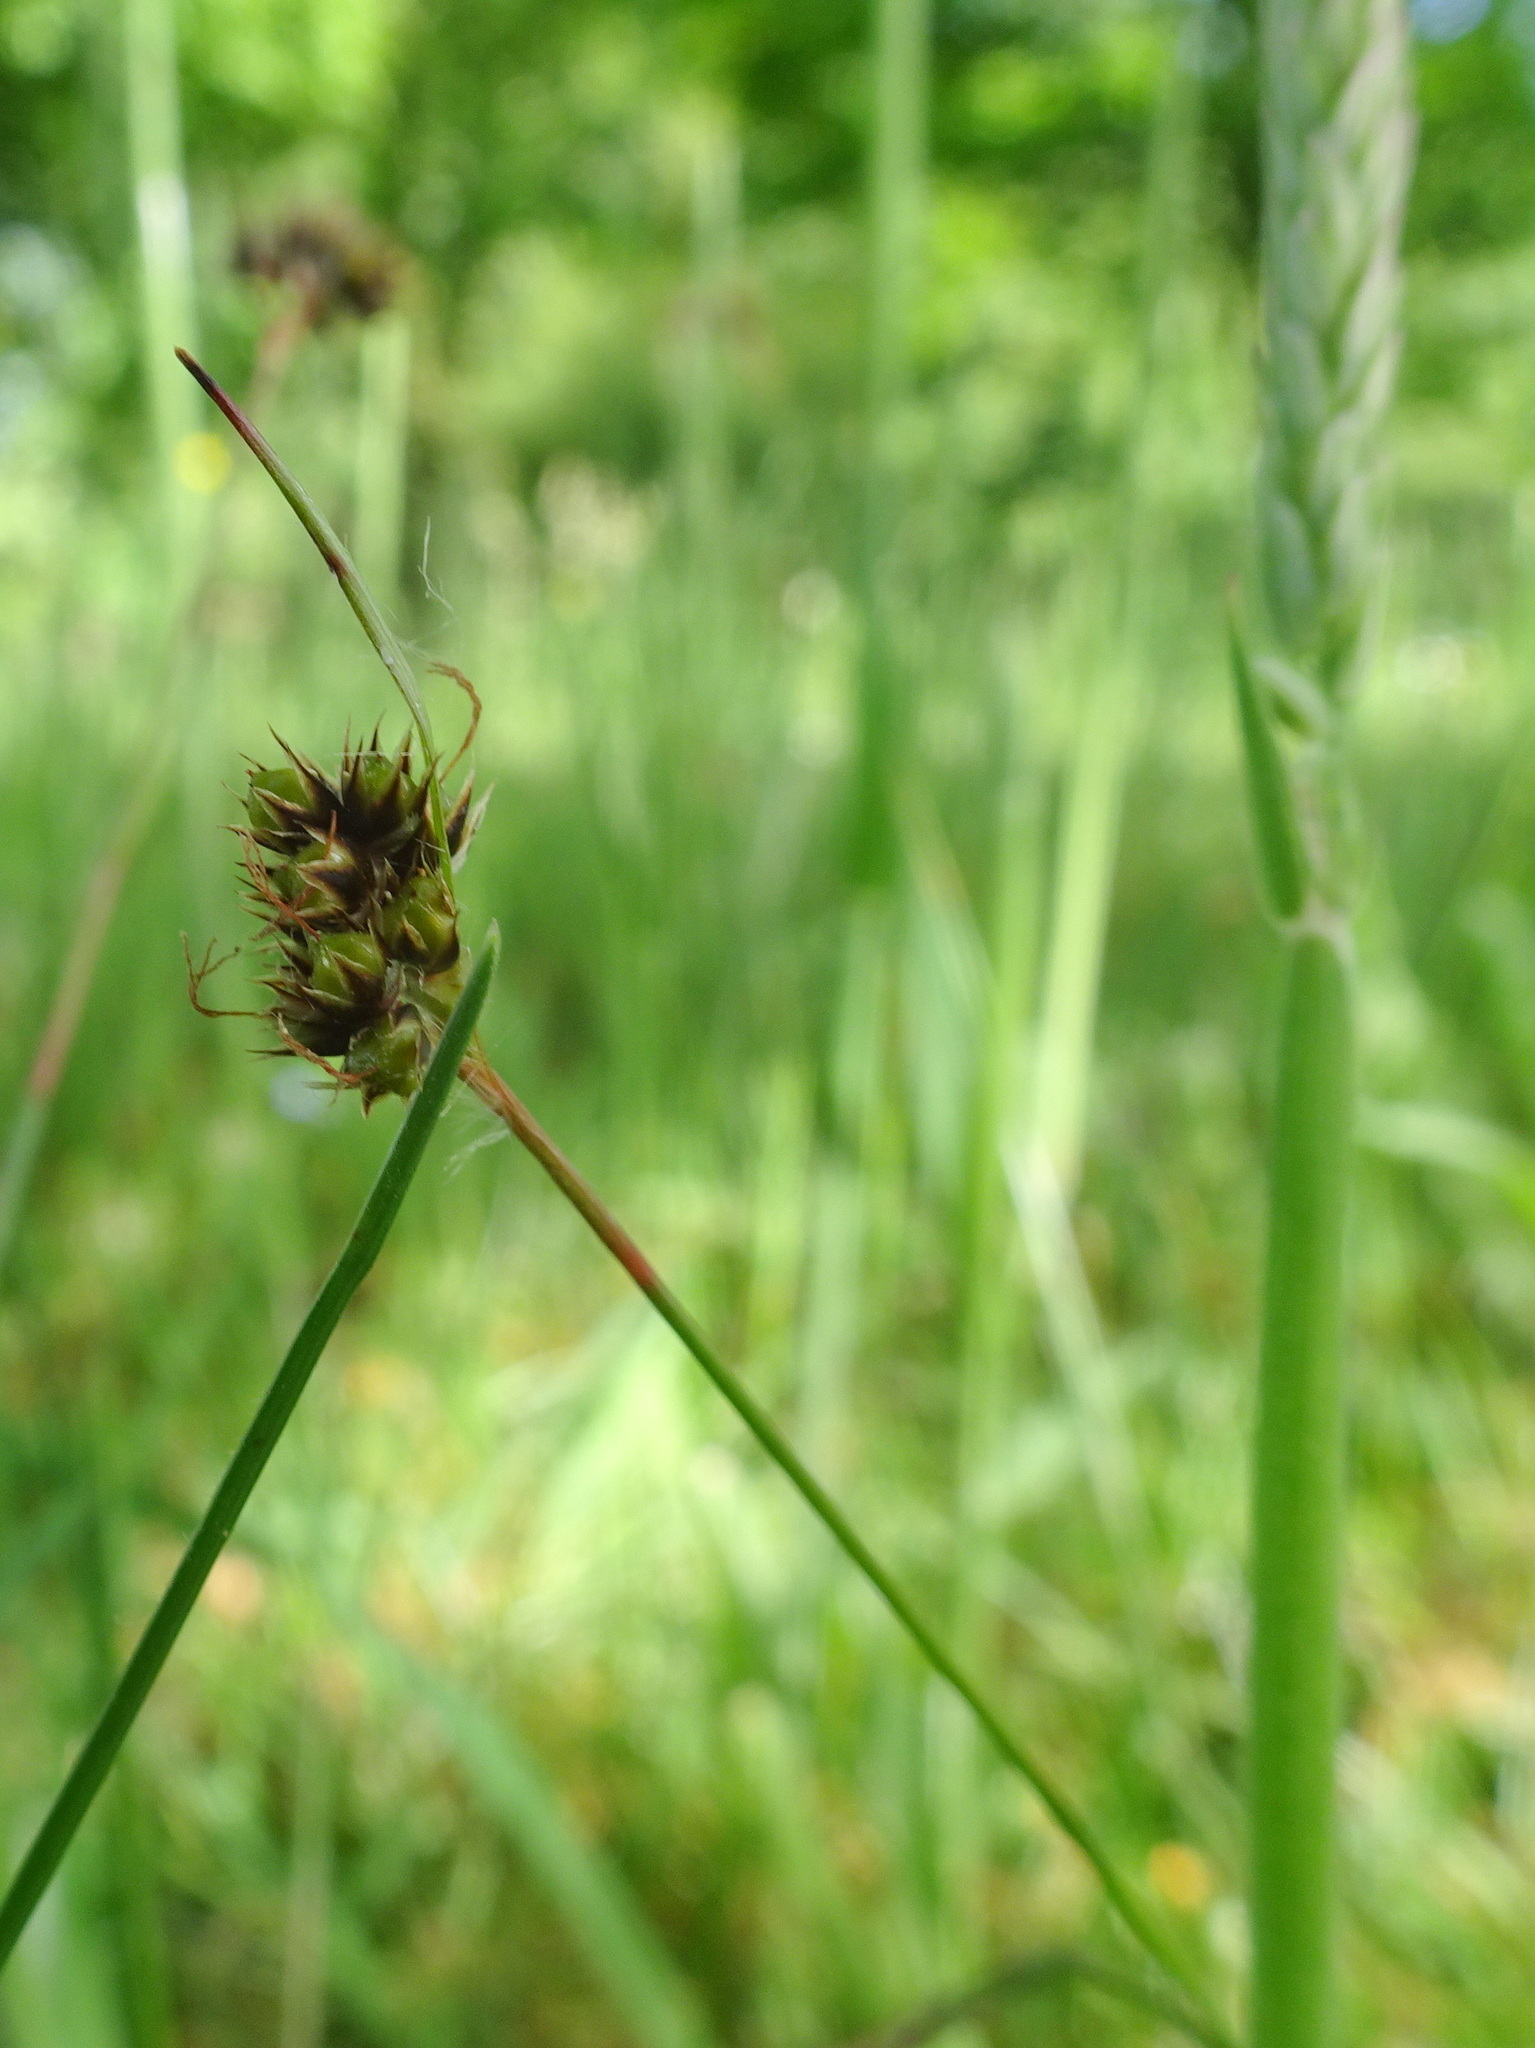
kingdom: Plantae
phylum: Tracheophyta
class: Liliopsida
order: Poales
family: Juncaceae
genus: Luzula
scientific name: Luzula campestris
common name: Field wood-rush
